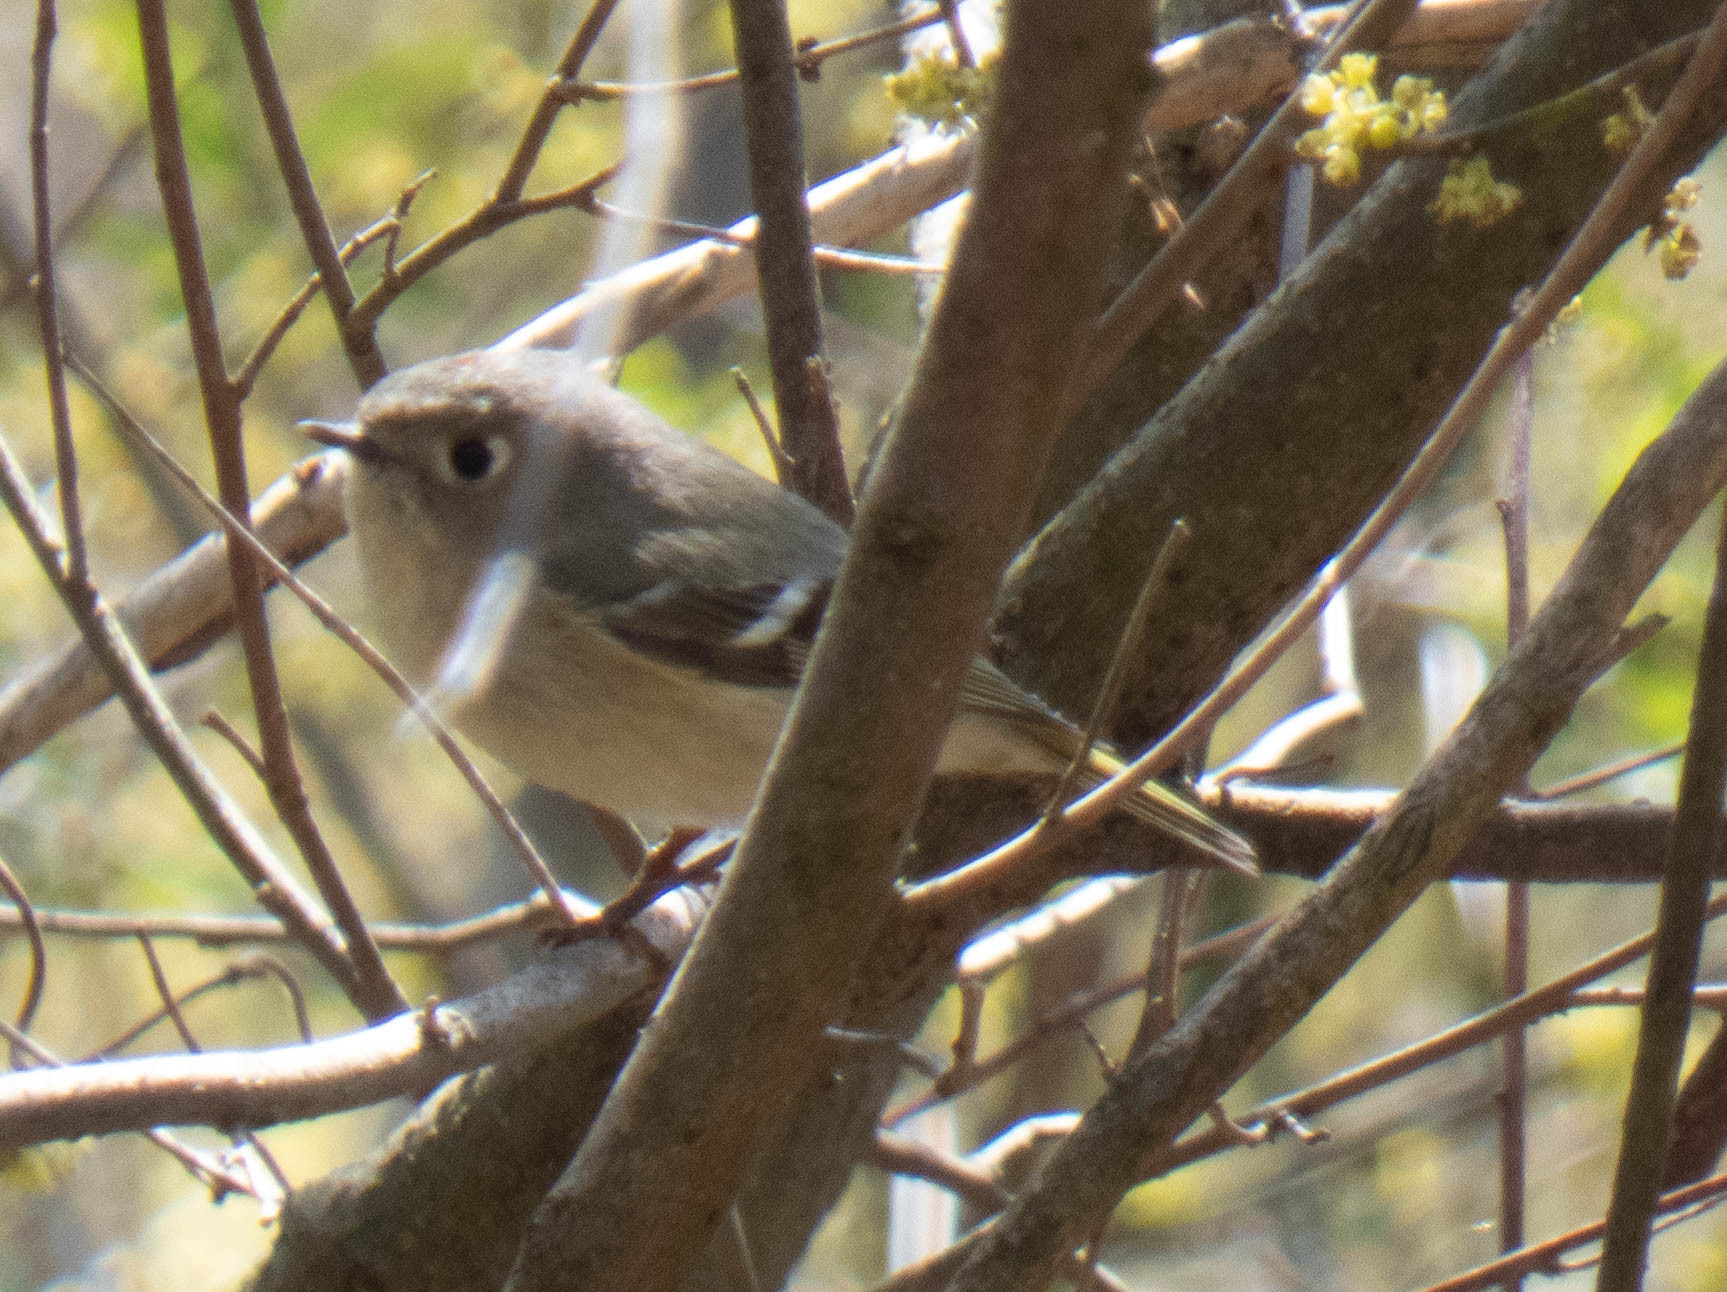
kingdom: Animalia
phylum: Chordata
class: Aves
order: Passeriformes
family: Regulidae
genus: Regulus
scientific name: Regulus calendula
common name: Ruby-crowned kinglet
